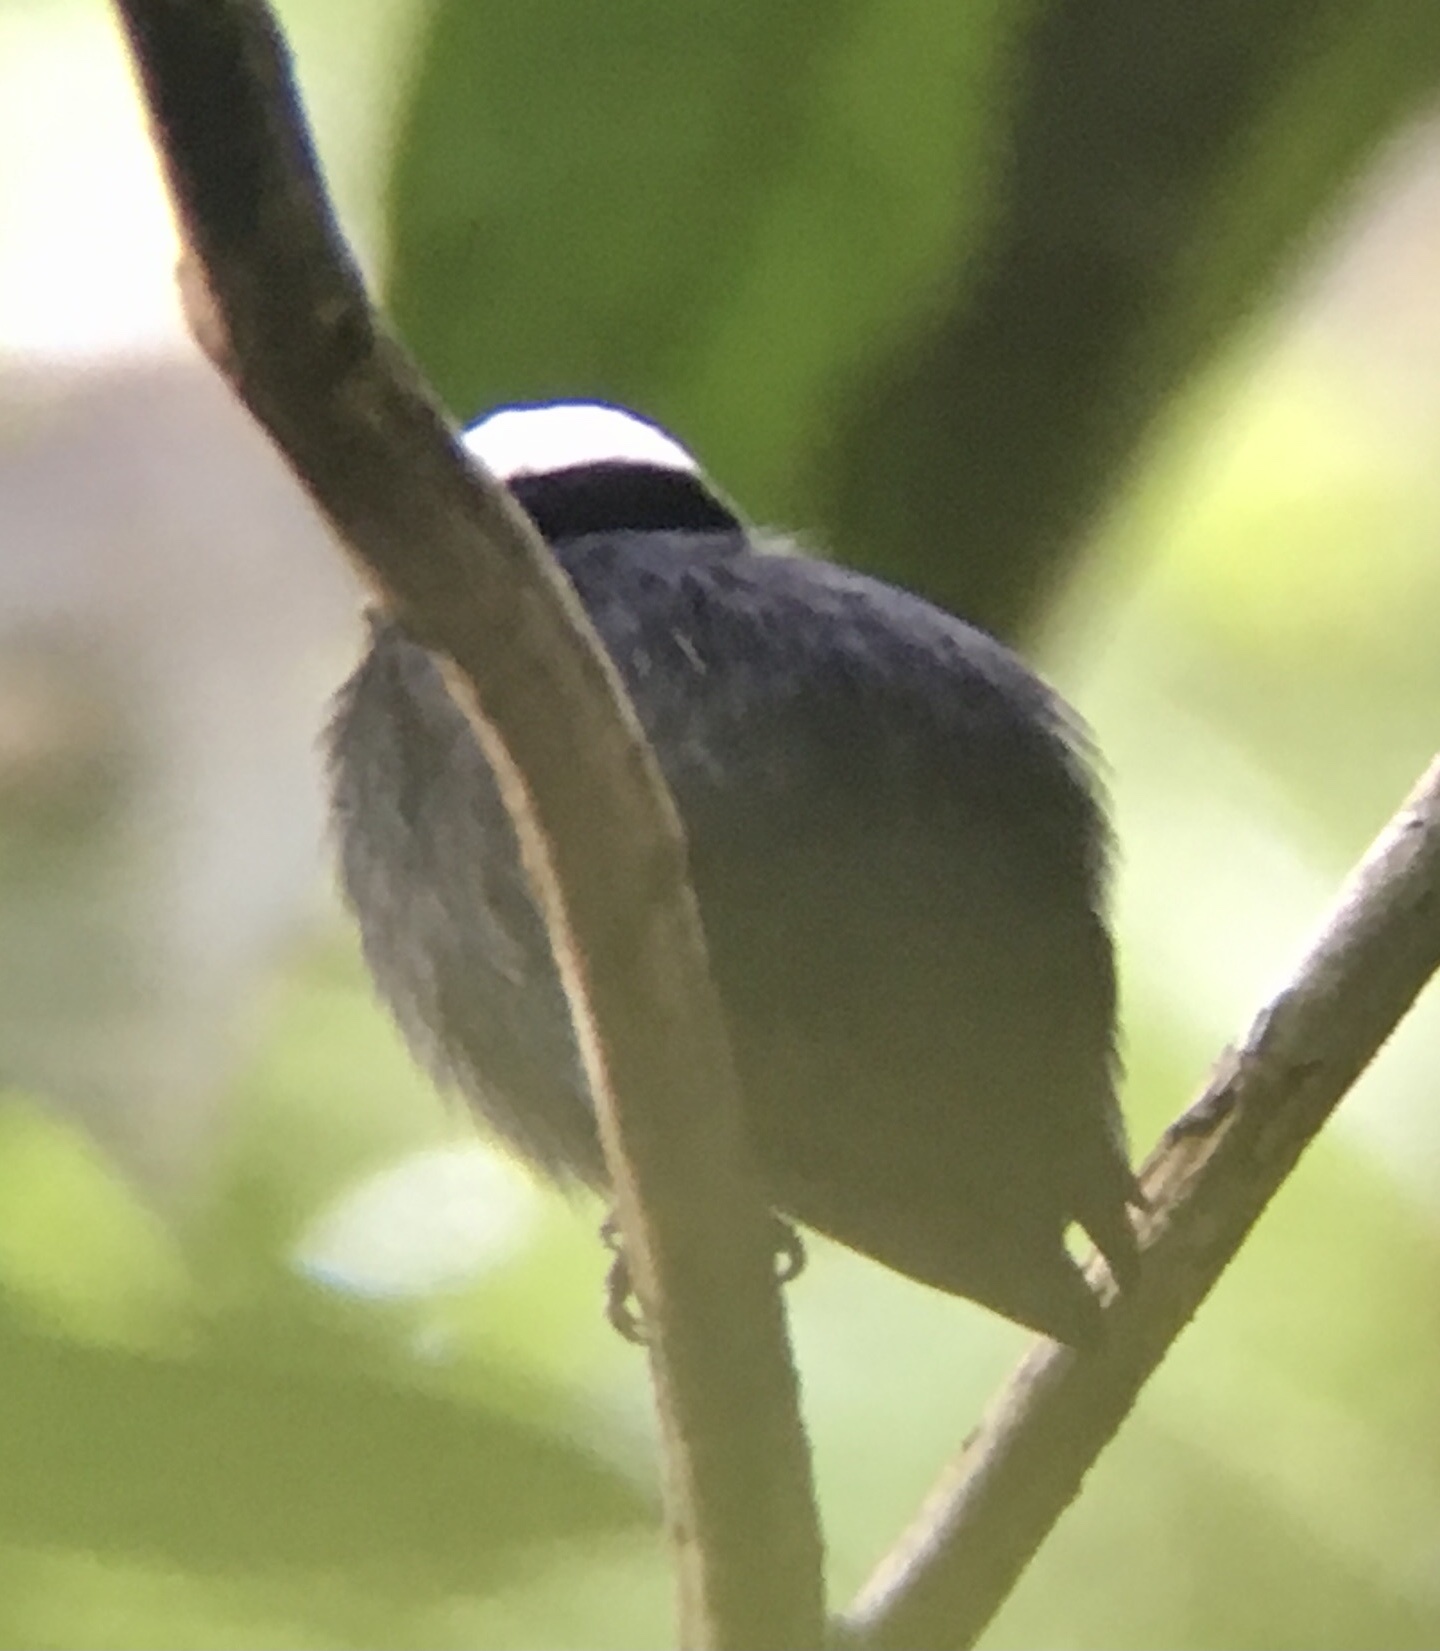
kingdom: Animalia
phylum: Chordata
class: Aves
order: Passeriformes
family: Pipridae
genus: Pipra
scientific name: Pipra pipra
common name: White-crowned manakin
